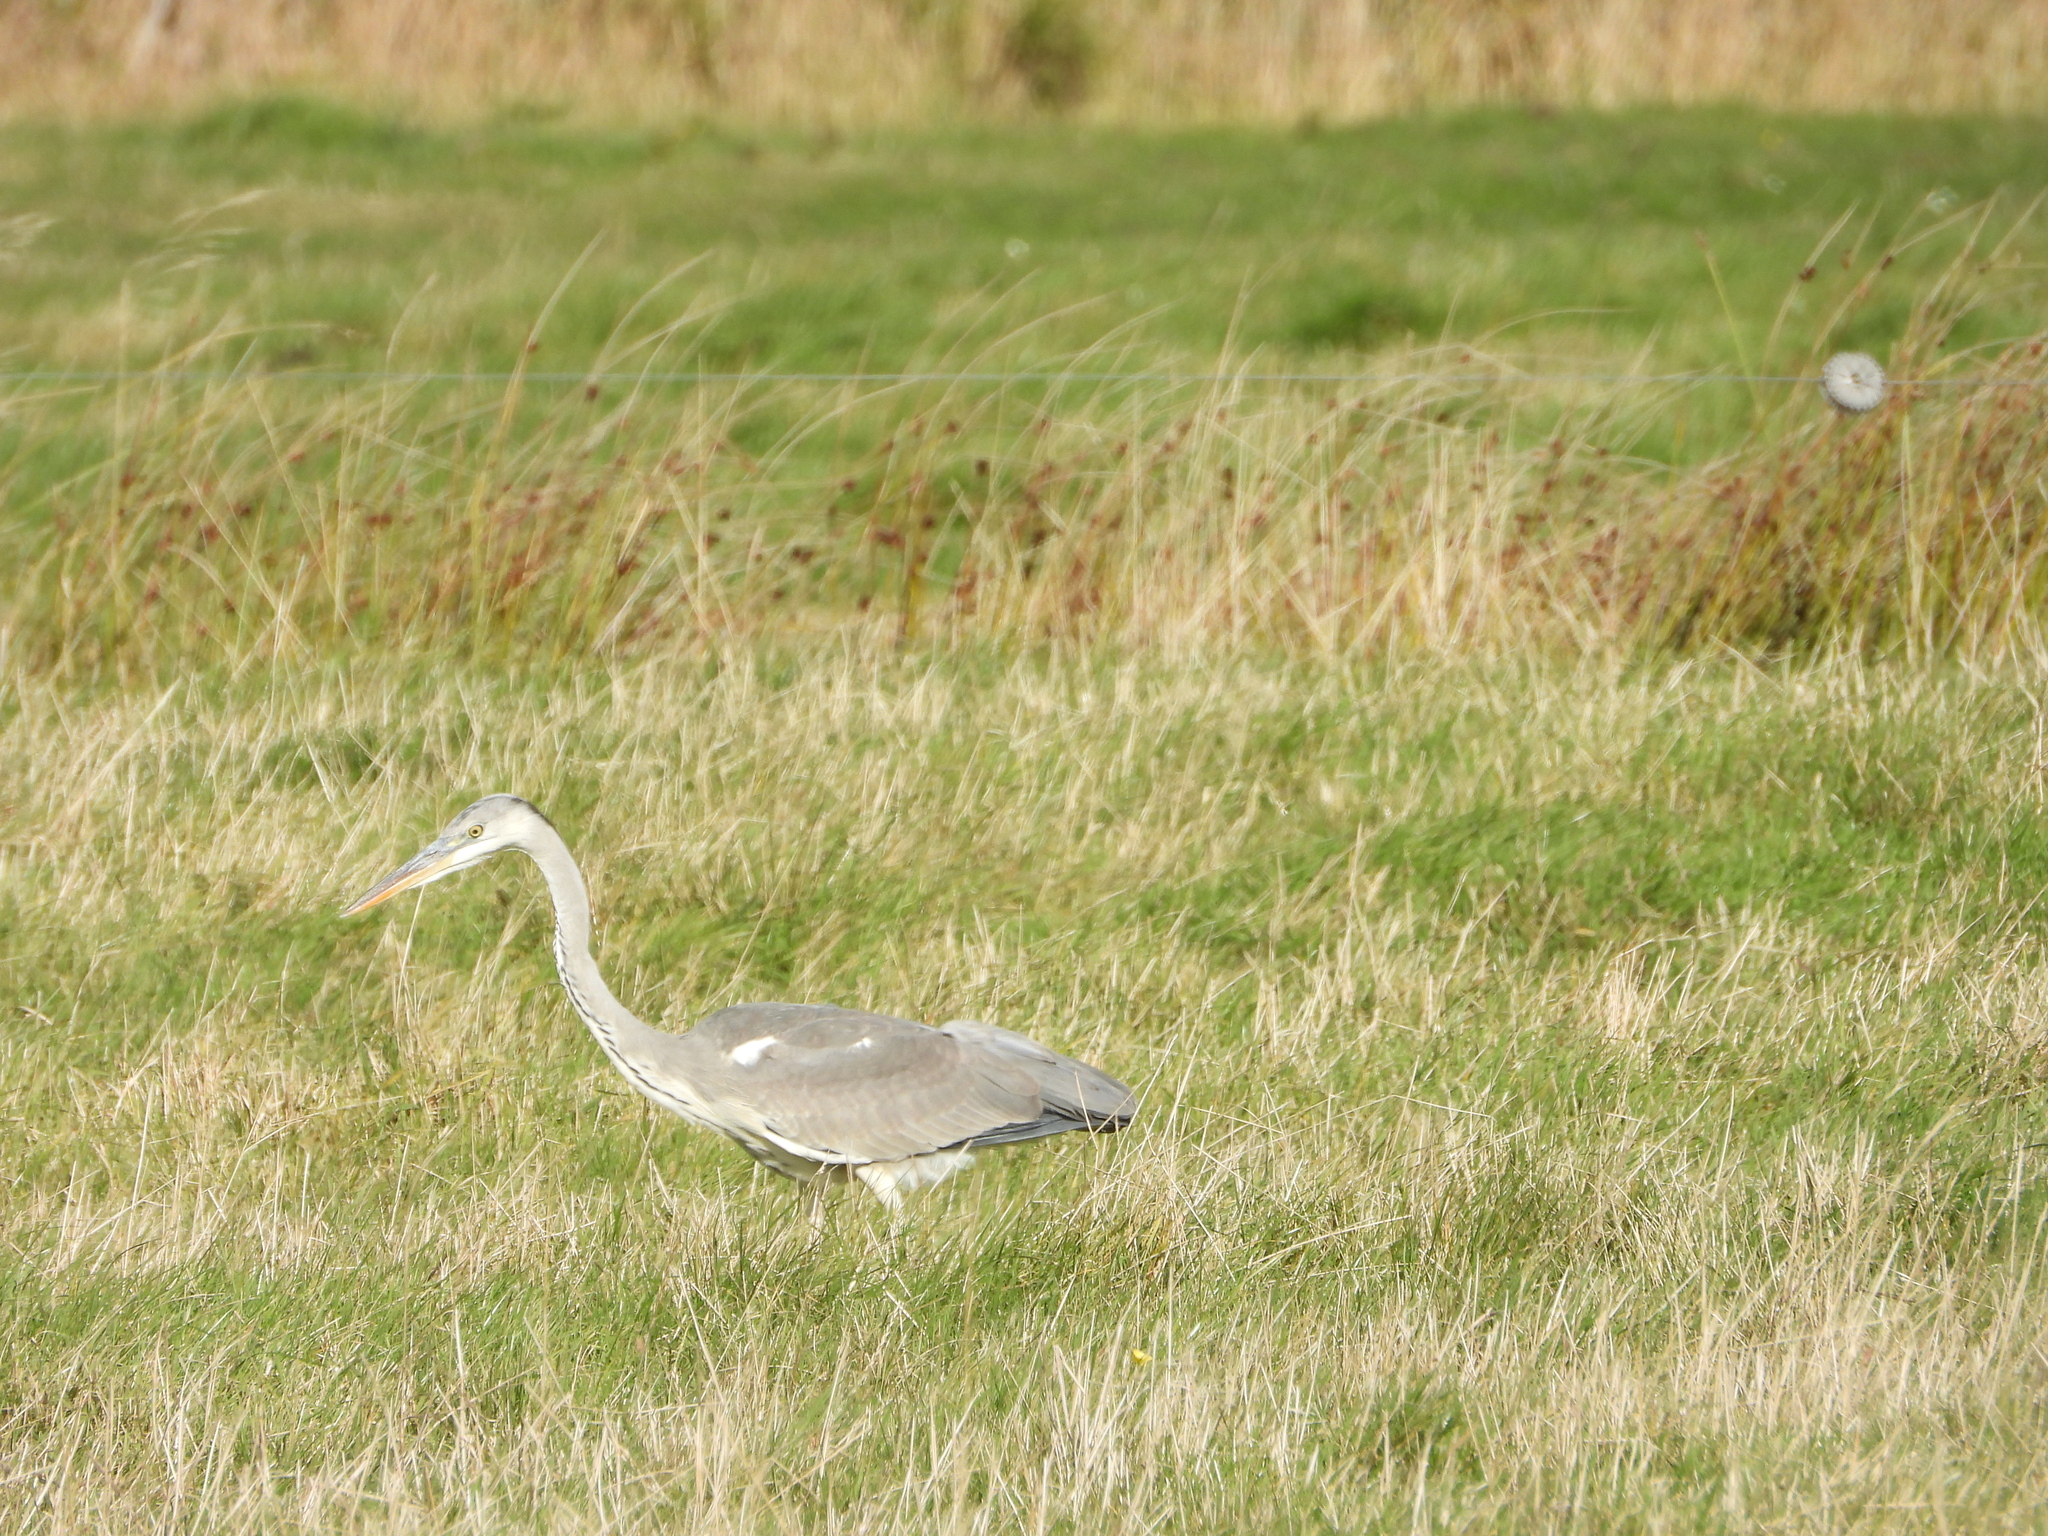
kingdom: Animalia
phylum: Chordata
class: Aves
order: Pelecaniformes
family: Ardeidae
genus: Ardea
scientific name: Ardea cinerea
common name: Grey heron
